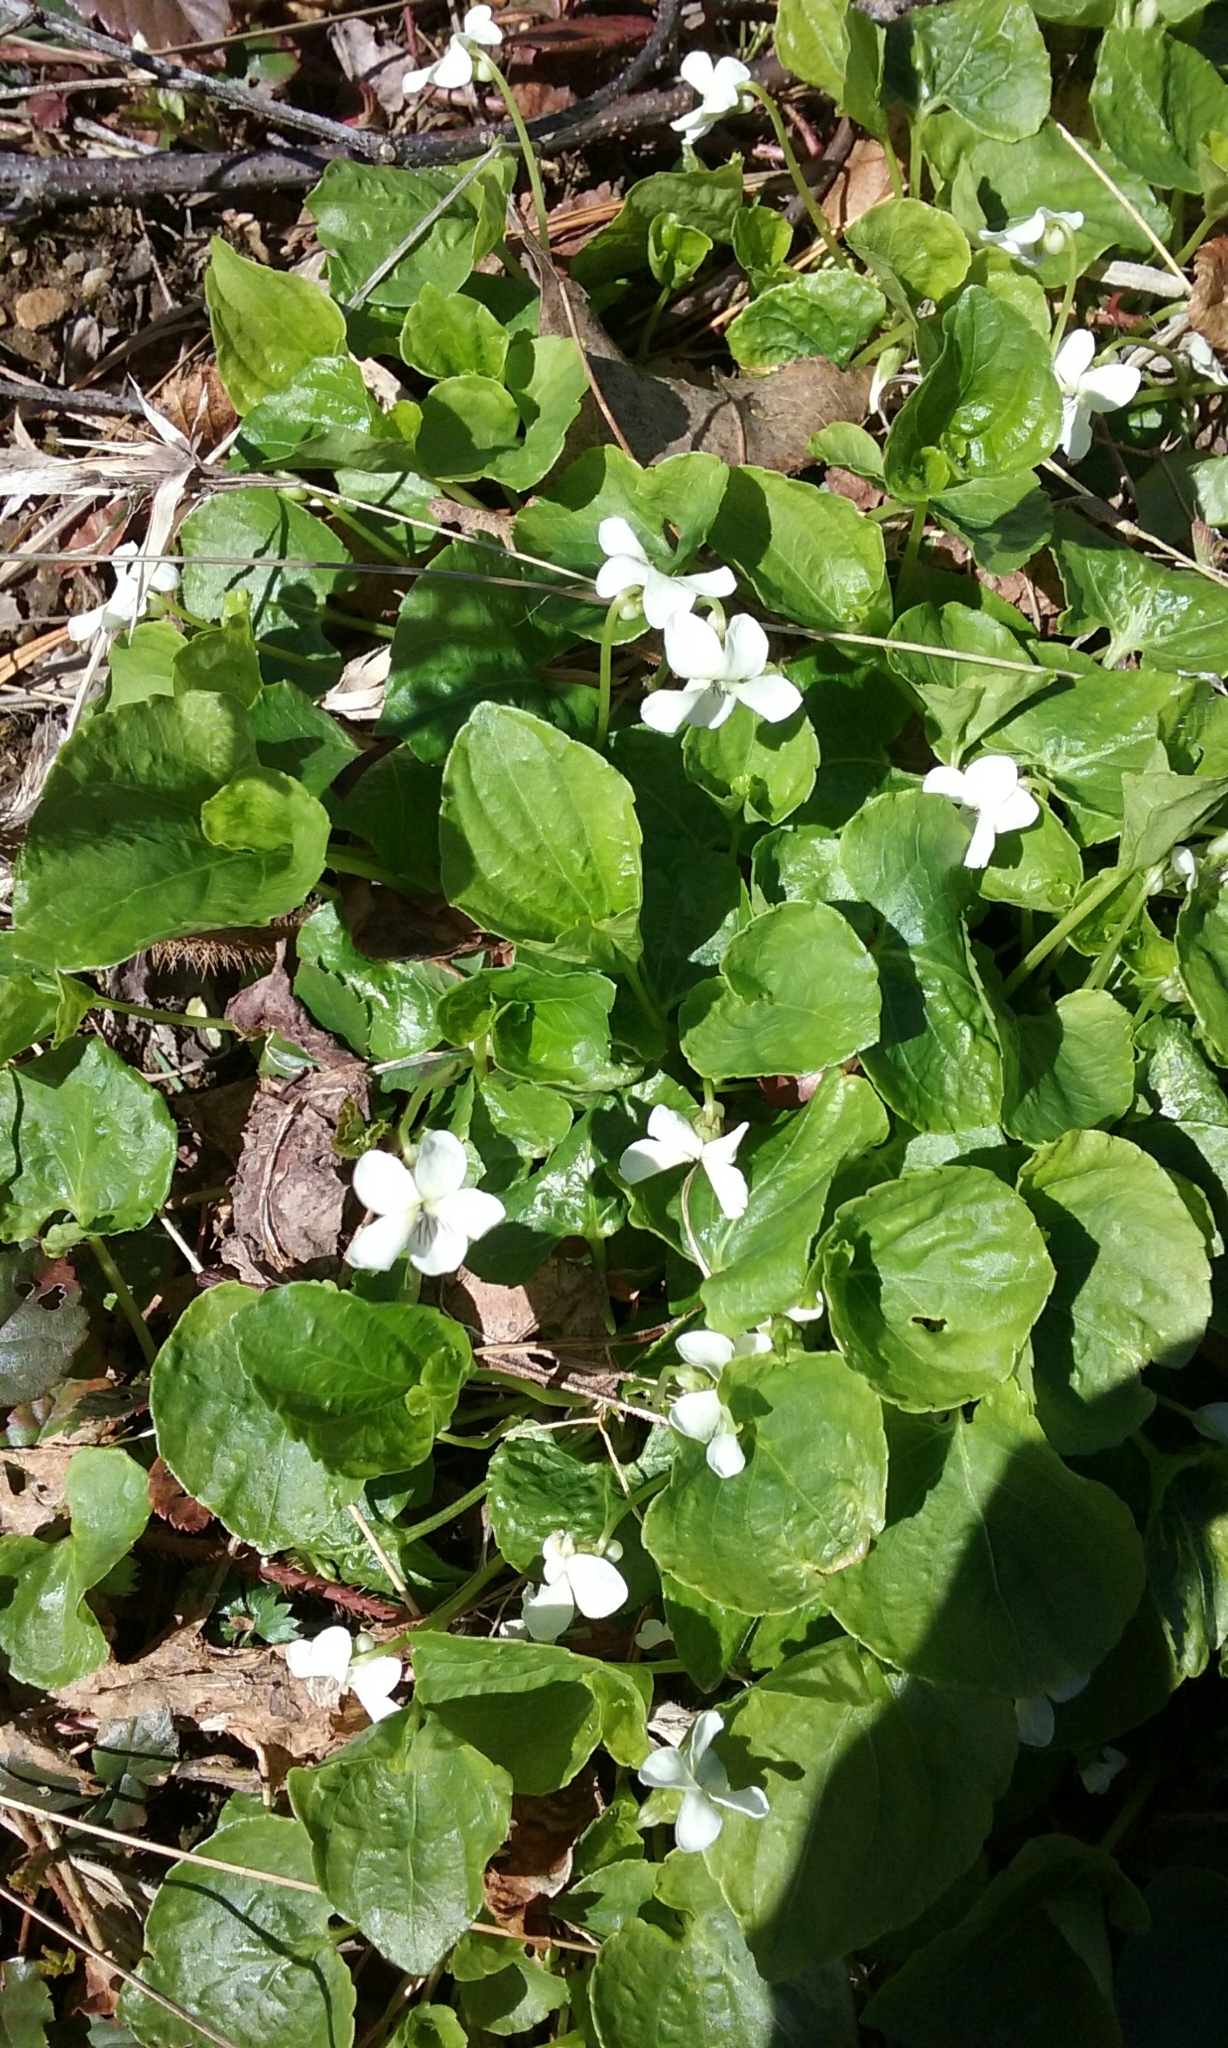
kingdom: Plantae
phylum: Tracheophyta
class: Magnoliopsida
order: Malpighiales
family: Violaceae
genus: Viola
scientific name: Viola minuscula
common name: Northern white violet
